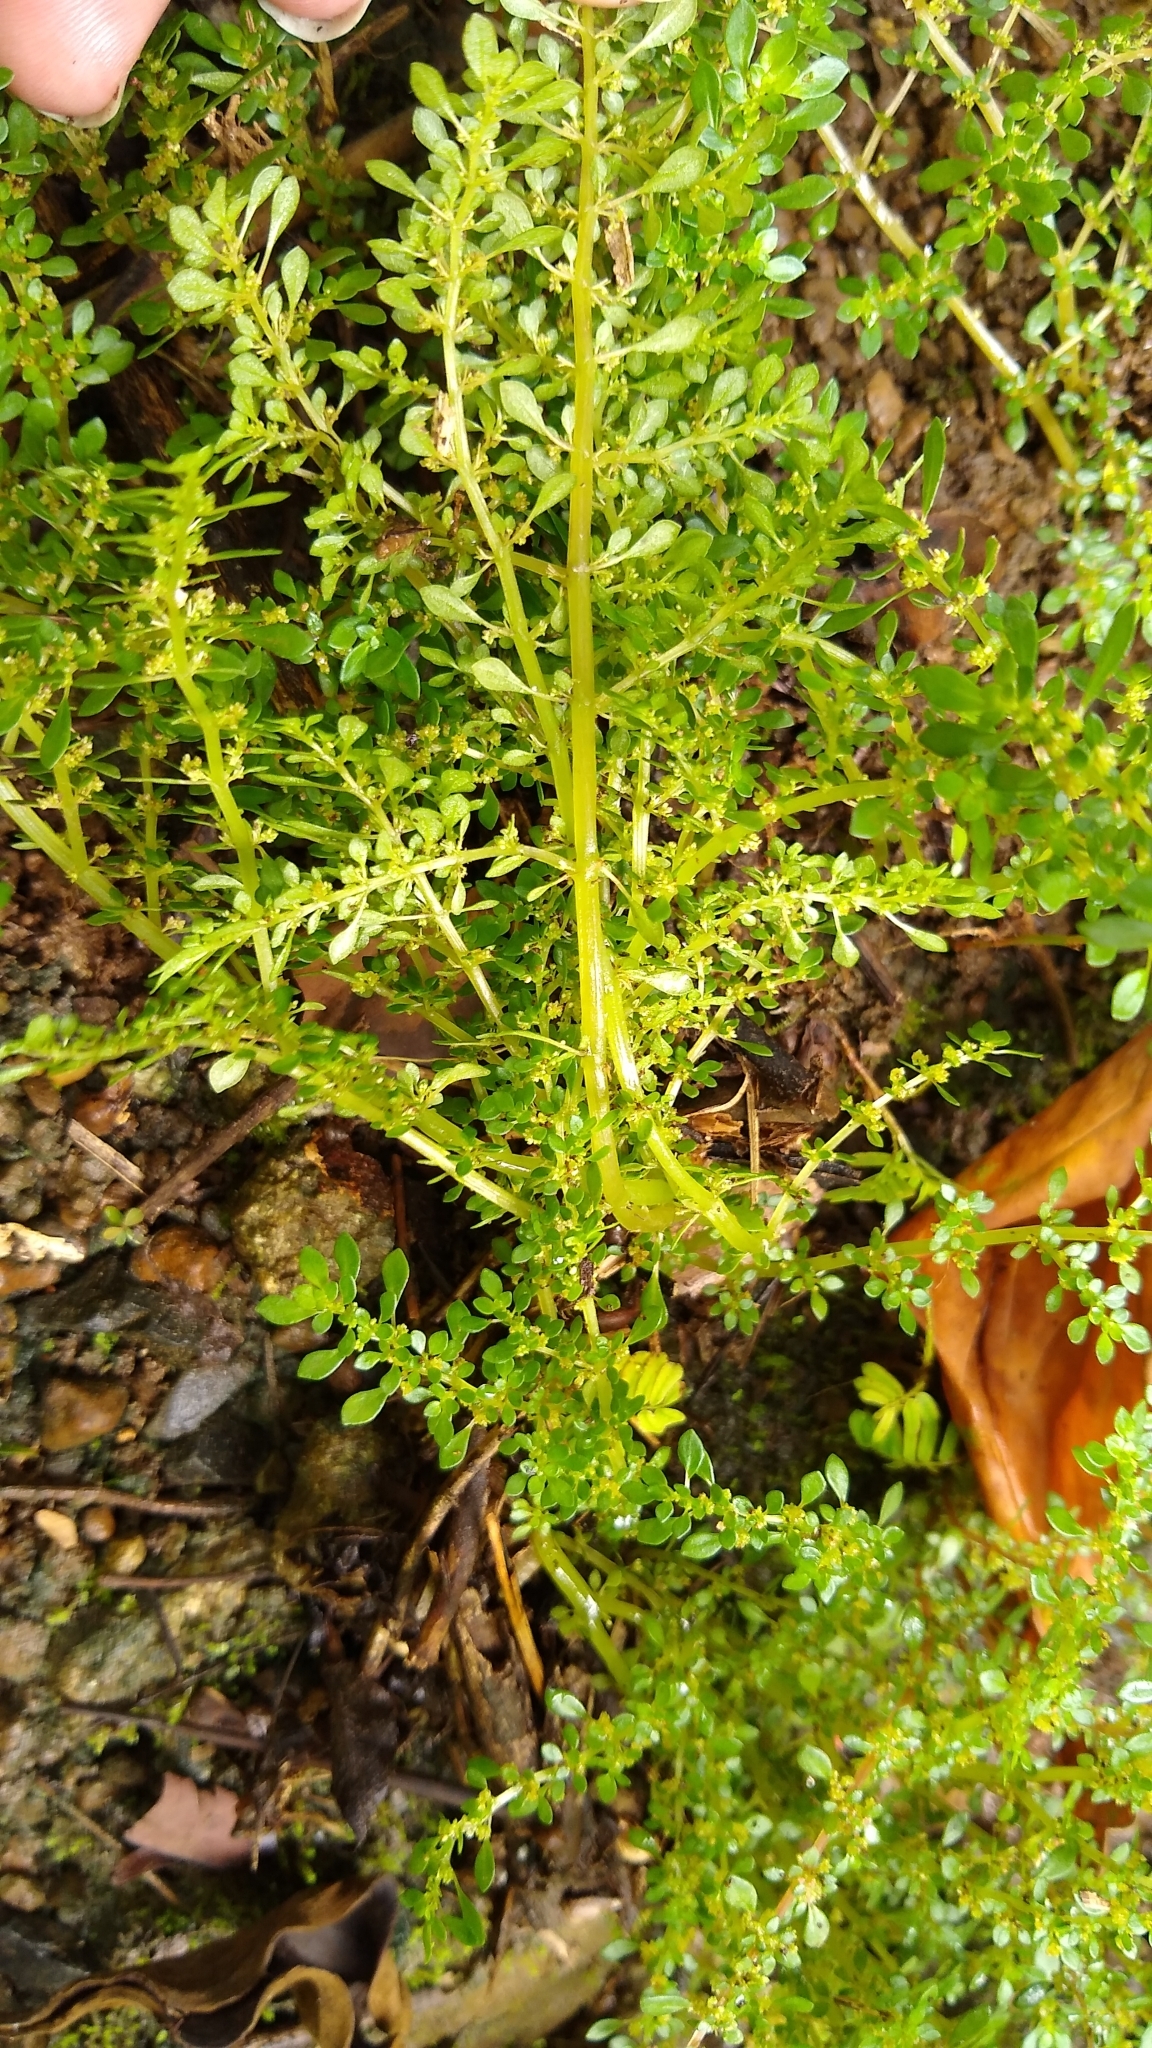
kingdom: Plantae
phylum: Tracheophyta
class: Magnoliopsida
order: Rosales
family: Urticaceae
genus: Pilea
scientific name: Pilea microphylla
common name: Artillery-plant
